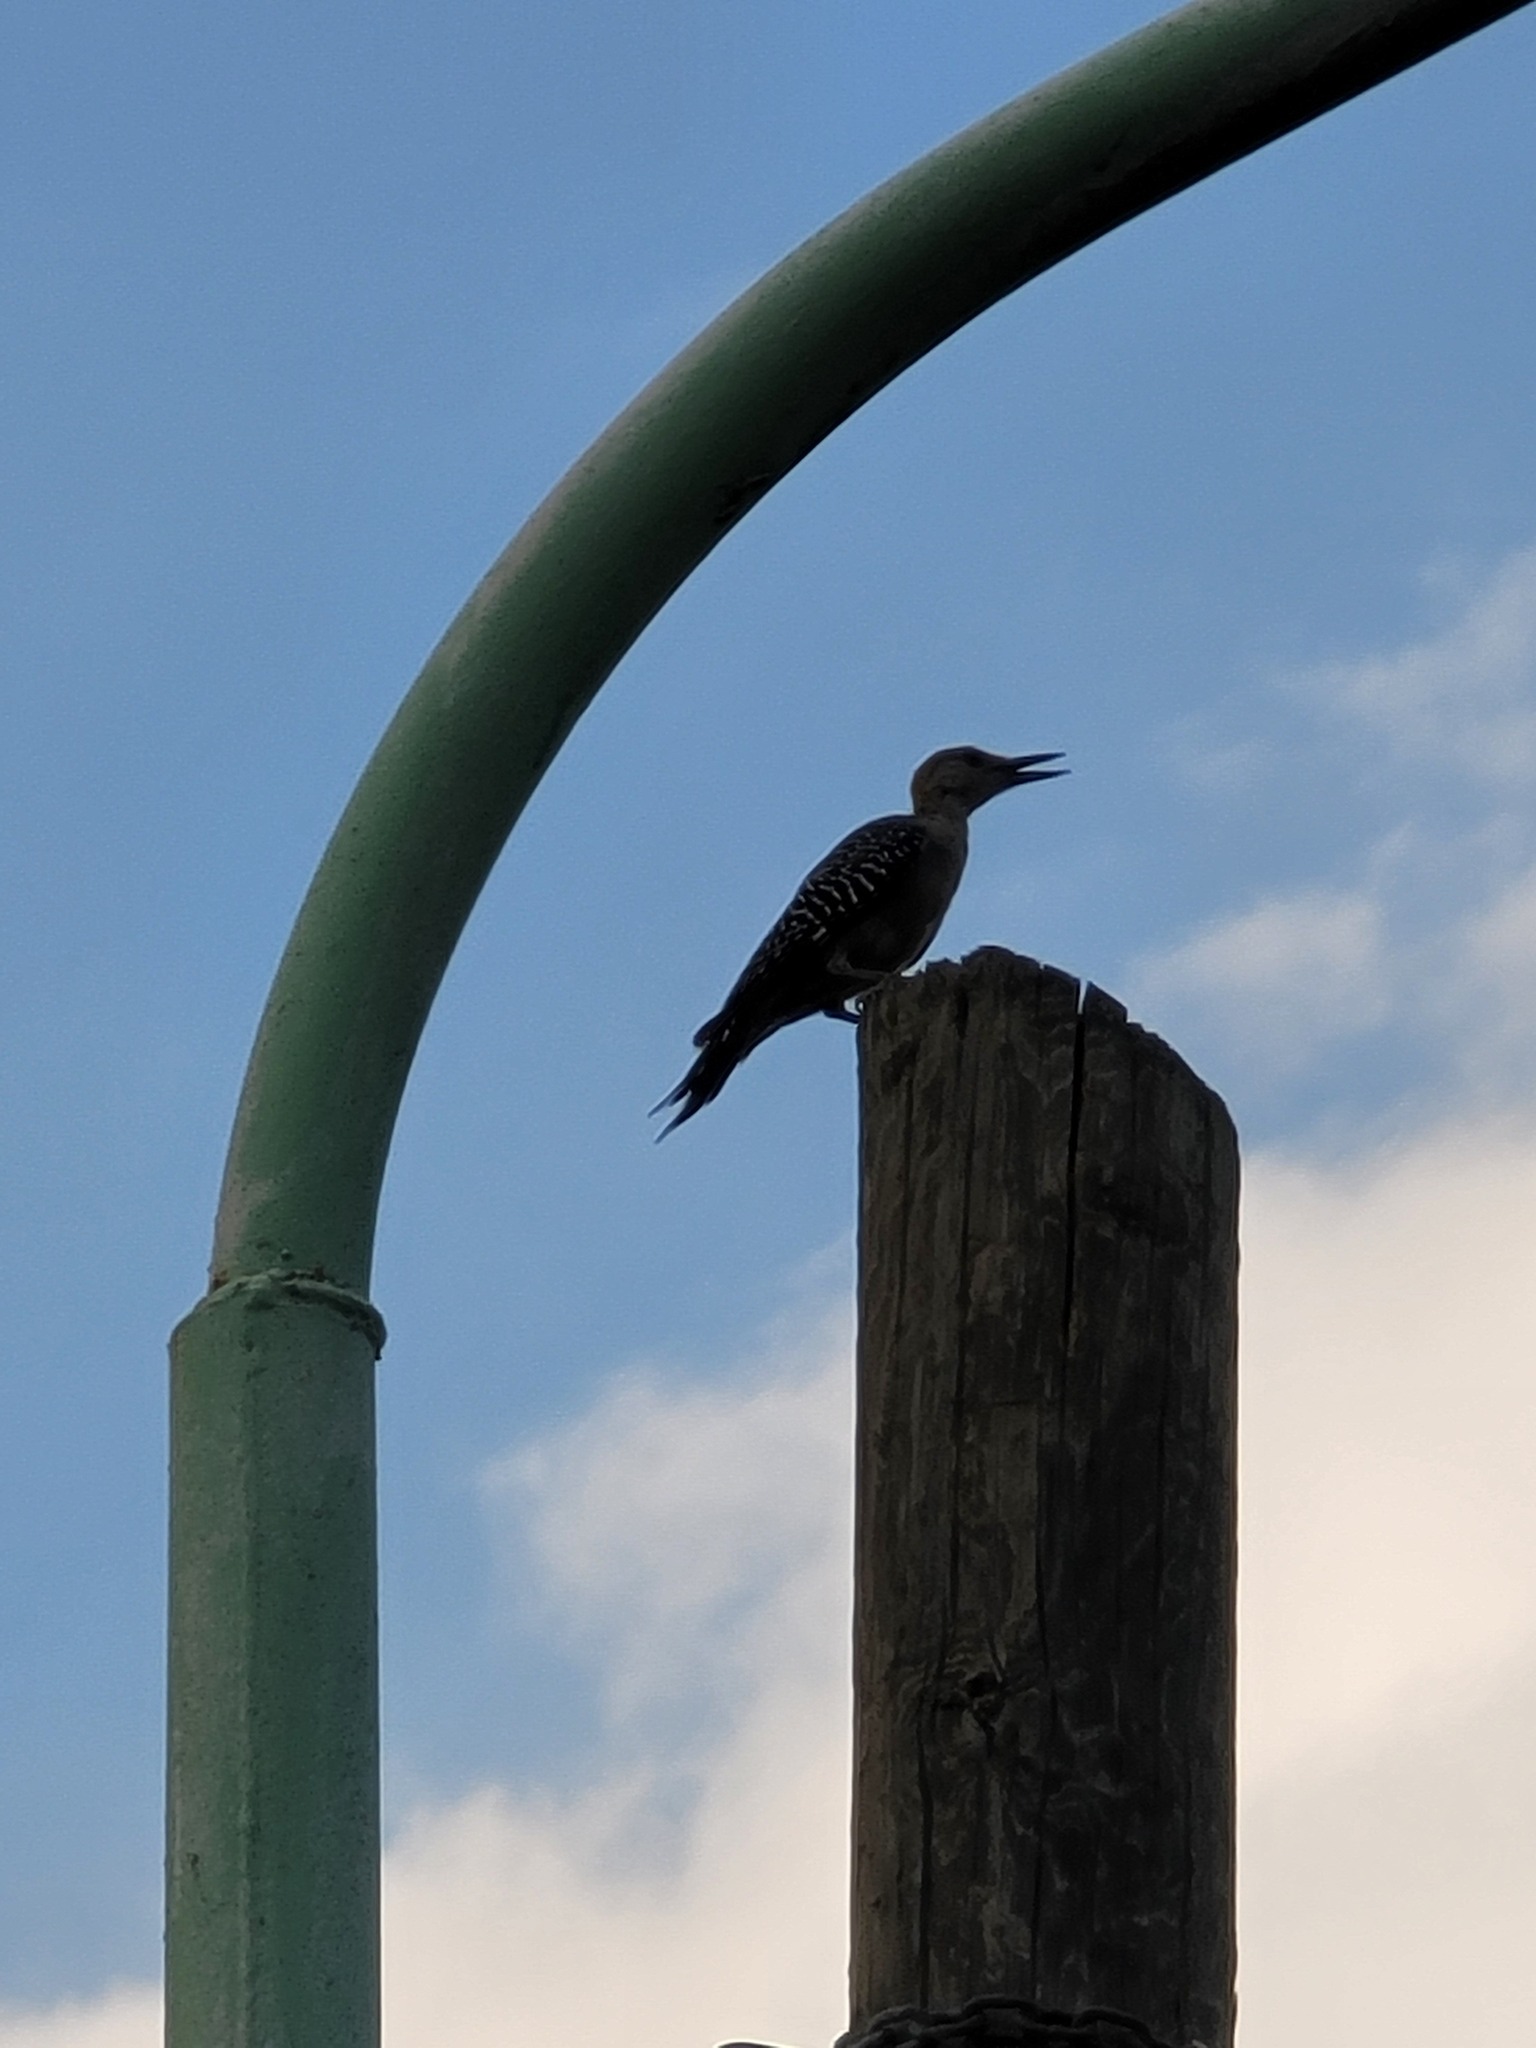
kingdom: Animalia
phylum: Chordata
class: Aves
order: Piciformes
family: Picidae
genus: Melanerpes
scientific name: Melanerpes aurifrons
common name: Golden-fronted woodpecker
